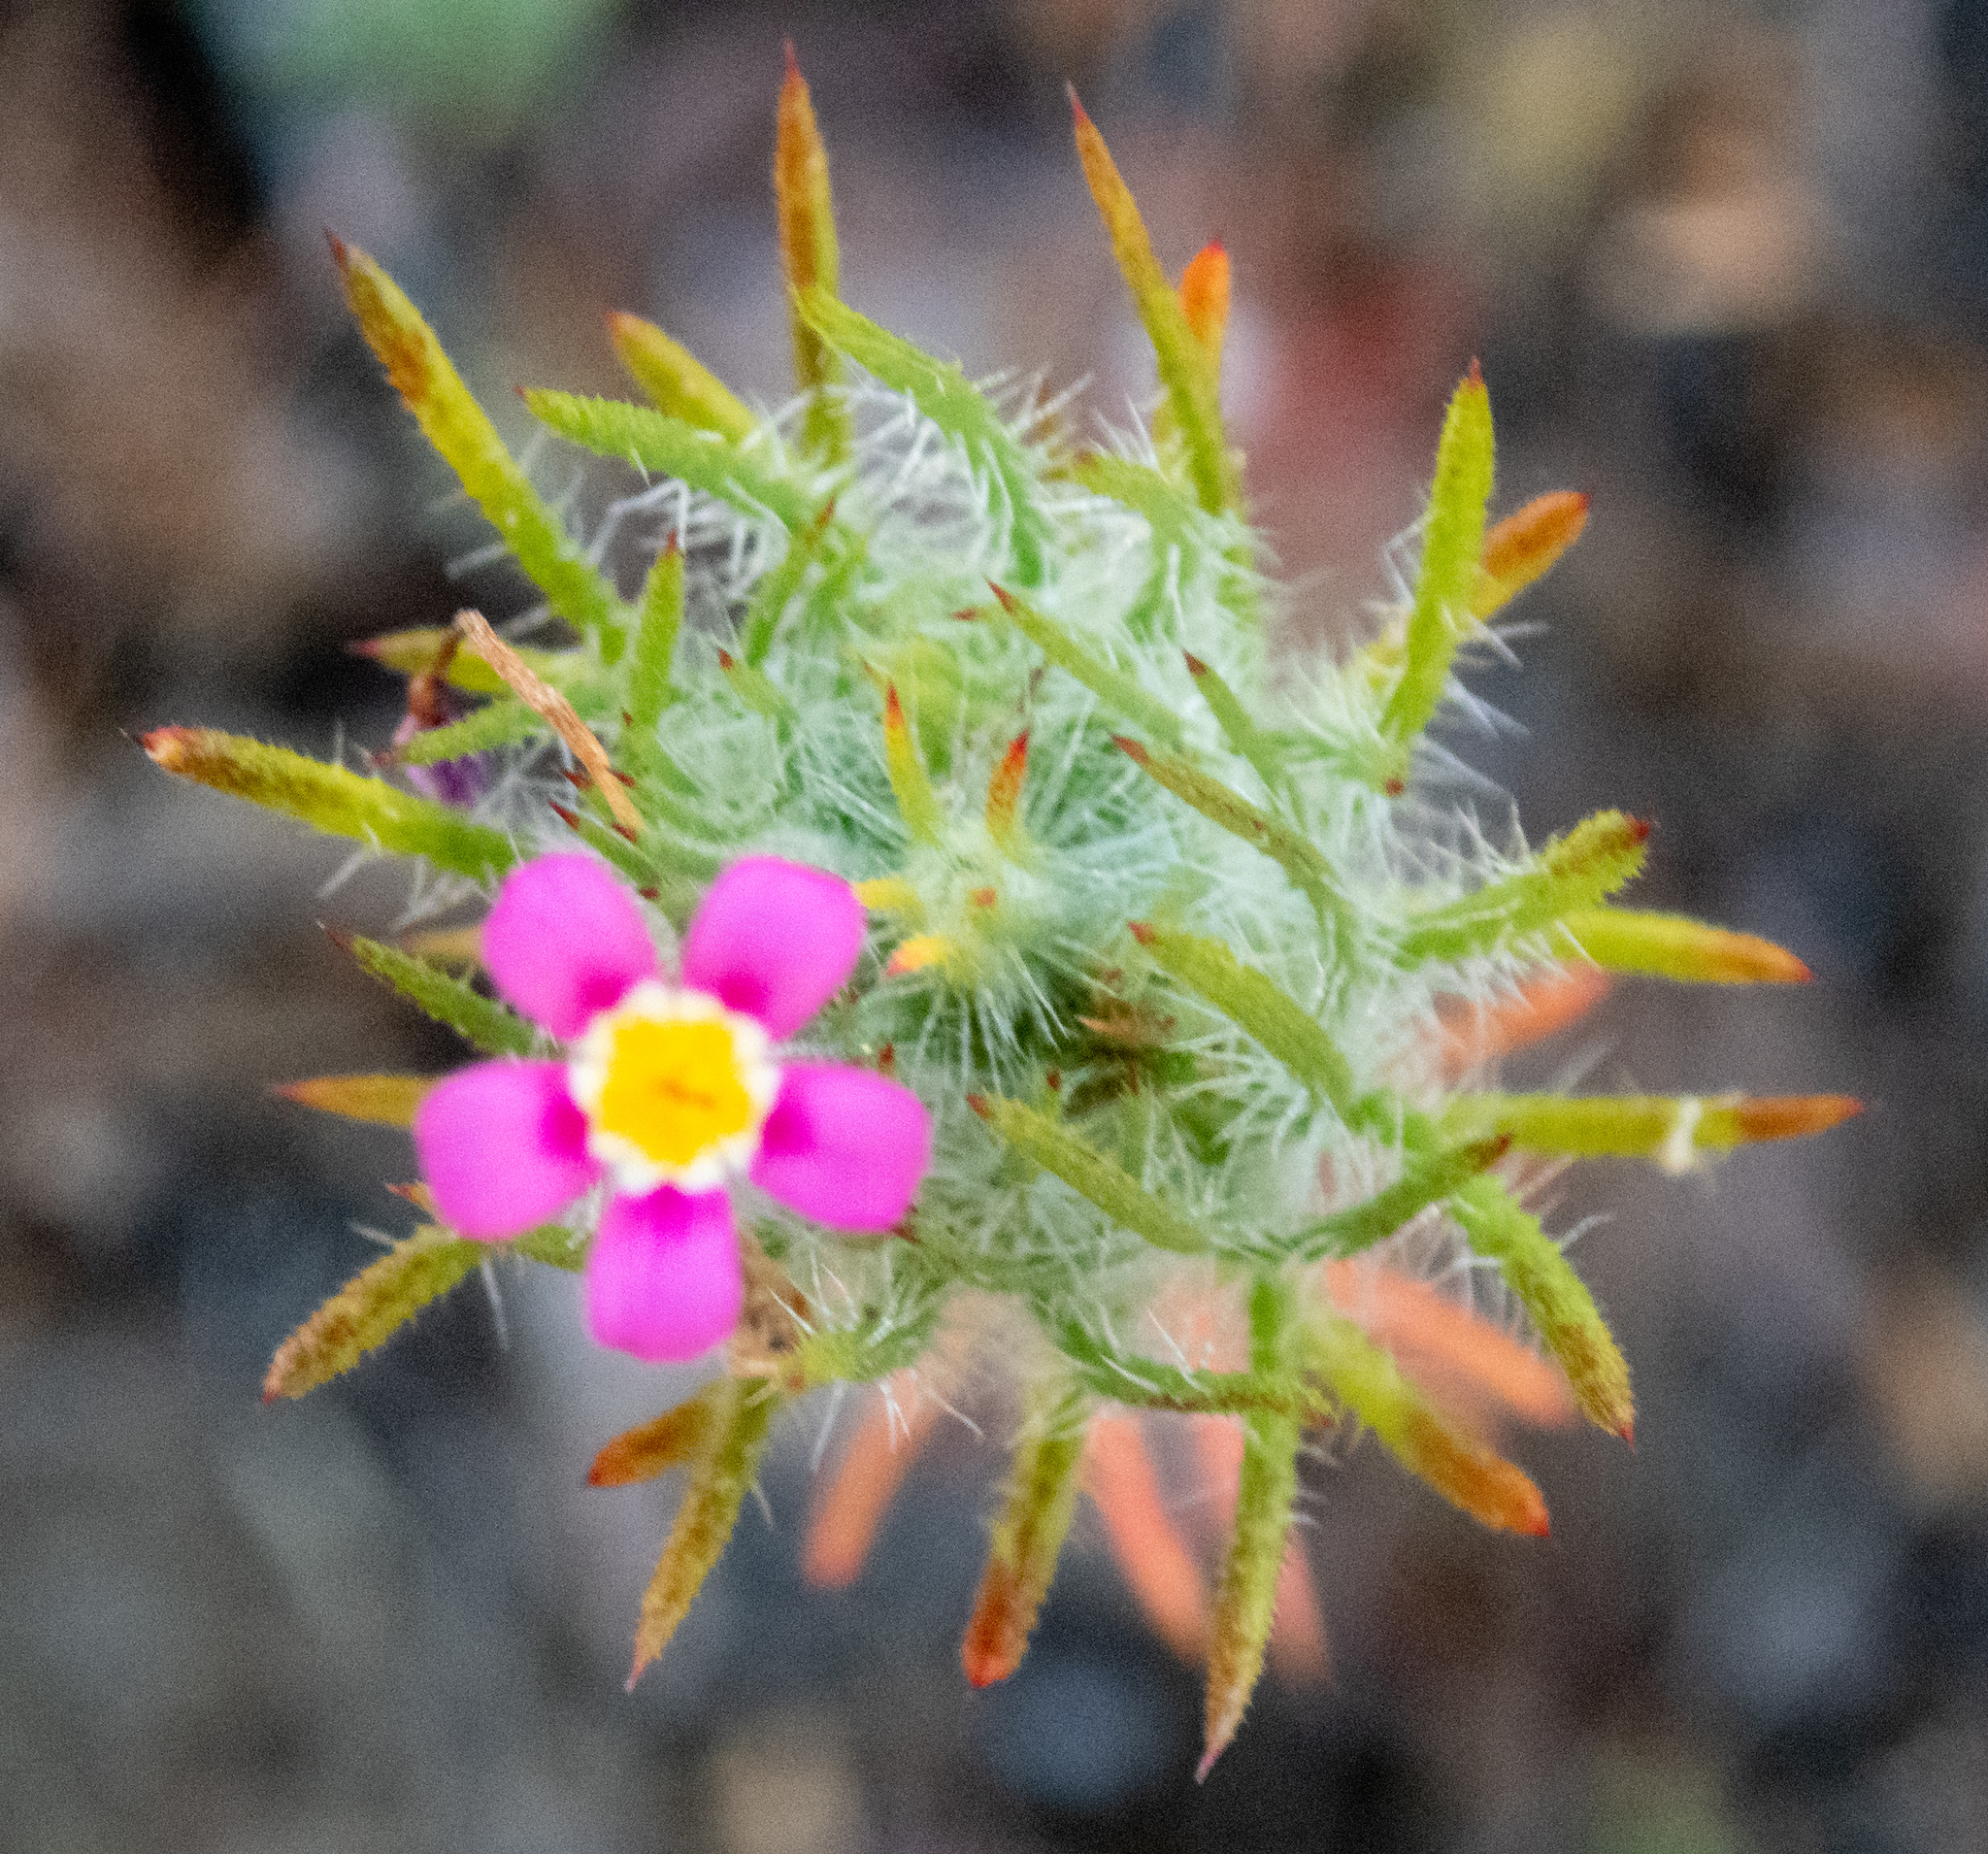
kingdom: Plantae
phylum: Tracheophyta
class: Magnoliopsida
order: Ericales
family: Polemoniaceae
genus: Leptosiphon
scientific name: Leptosiphon ciliatus
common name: Whiskerbrush
